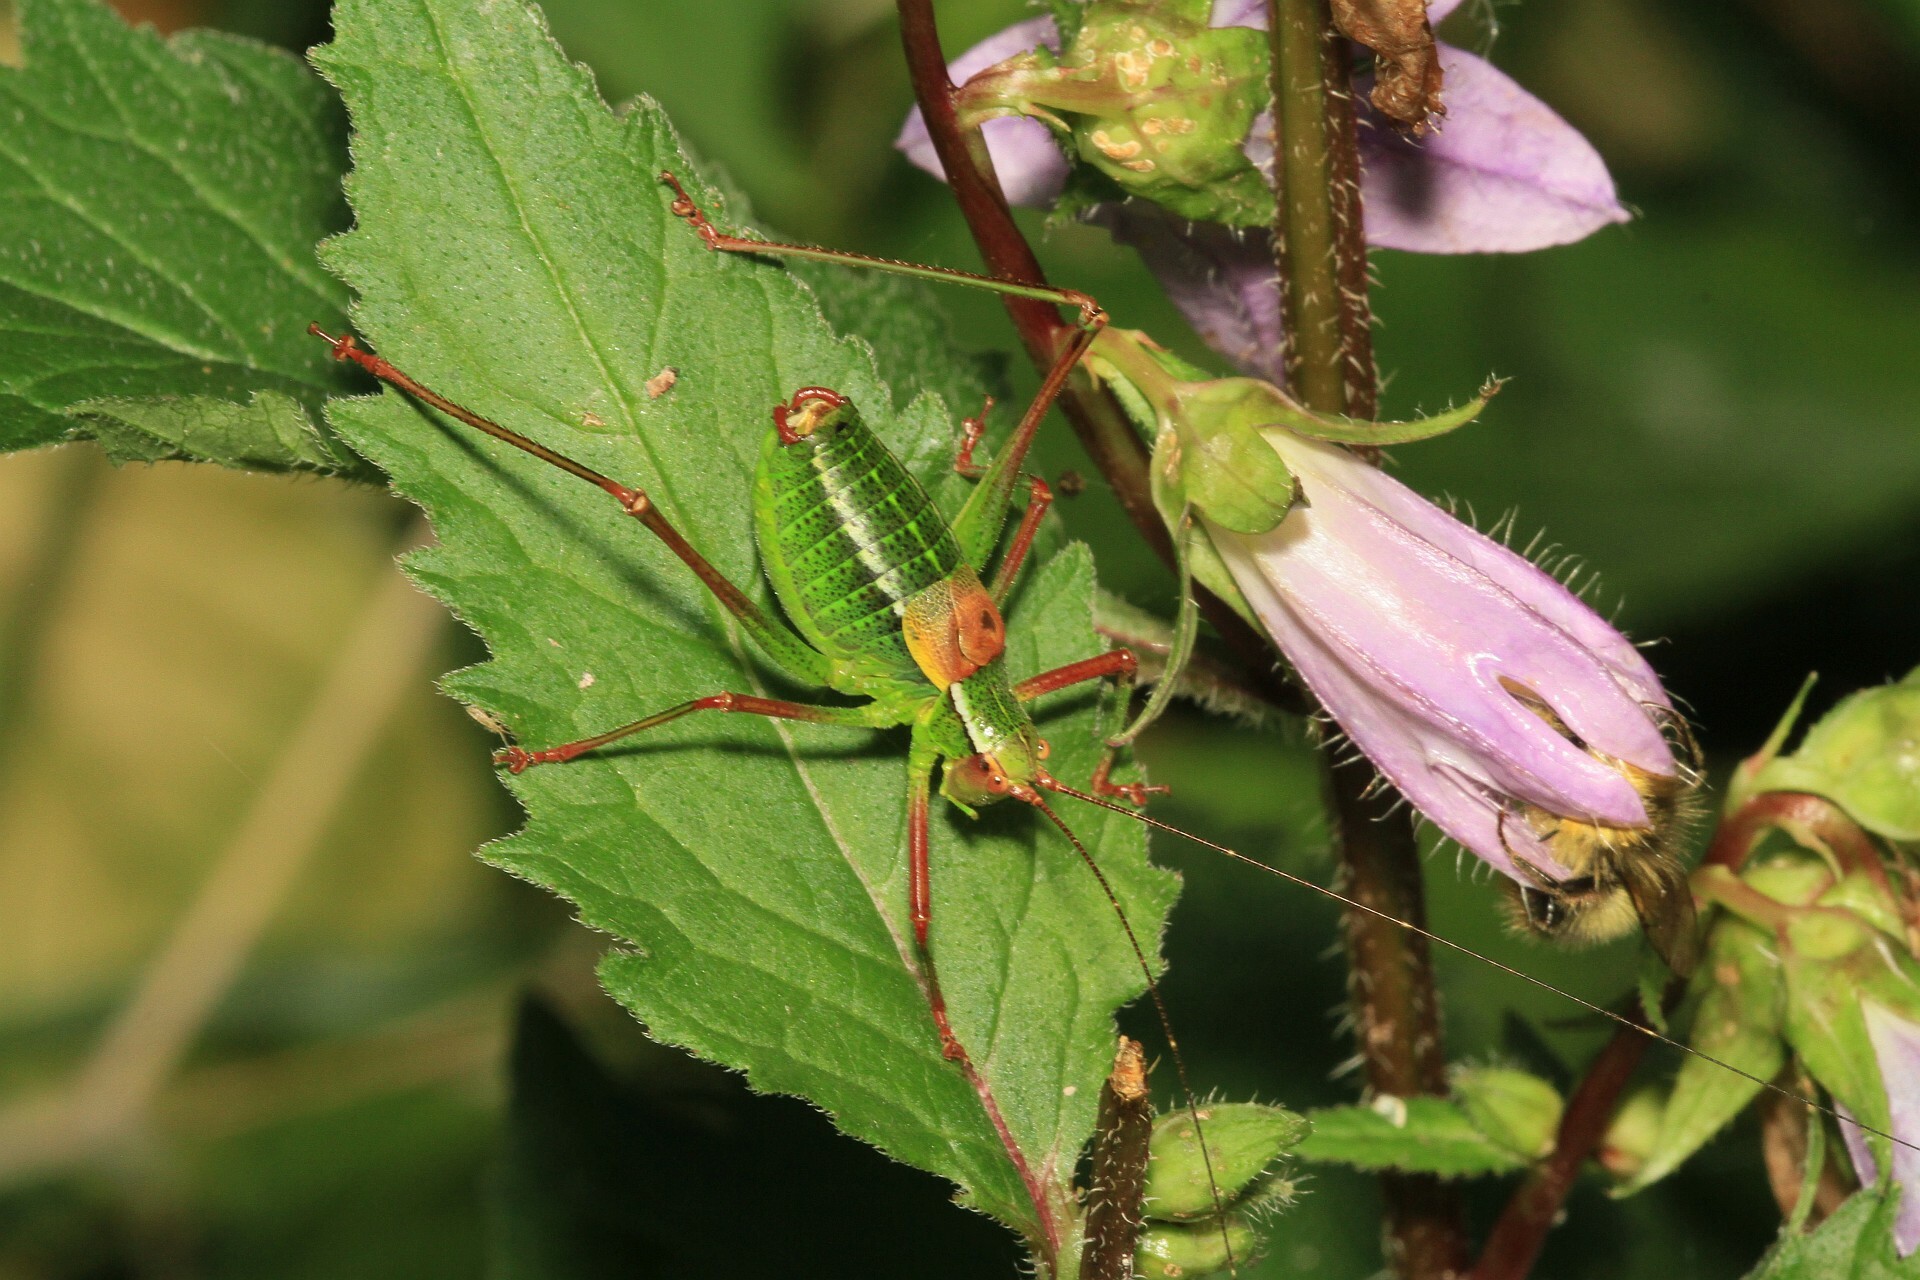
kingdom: Animalia
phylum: Arthropoda
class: Insecta
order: Orthoptera
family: Tettigoniidae
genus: Barbitistes
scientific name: Barbitistes constrictus
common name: Eastern saw-tailed bush cricket
